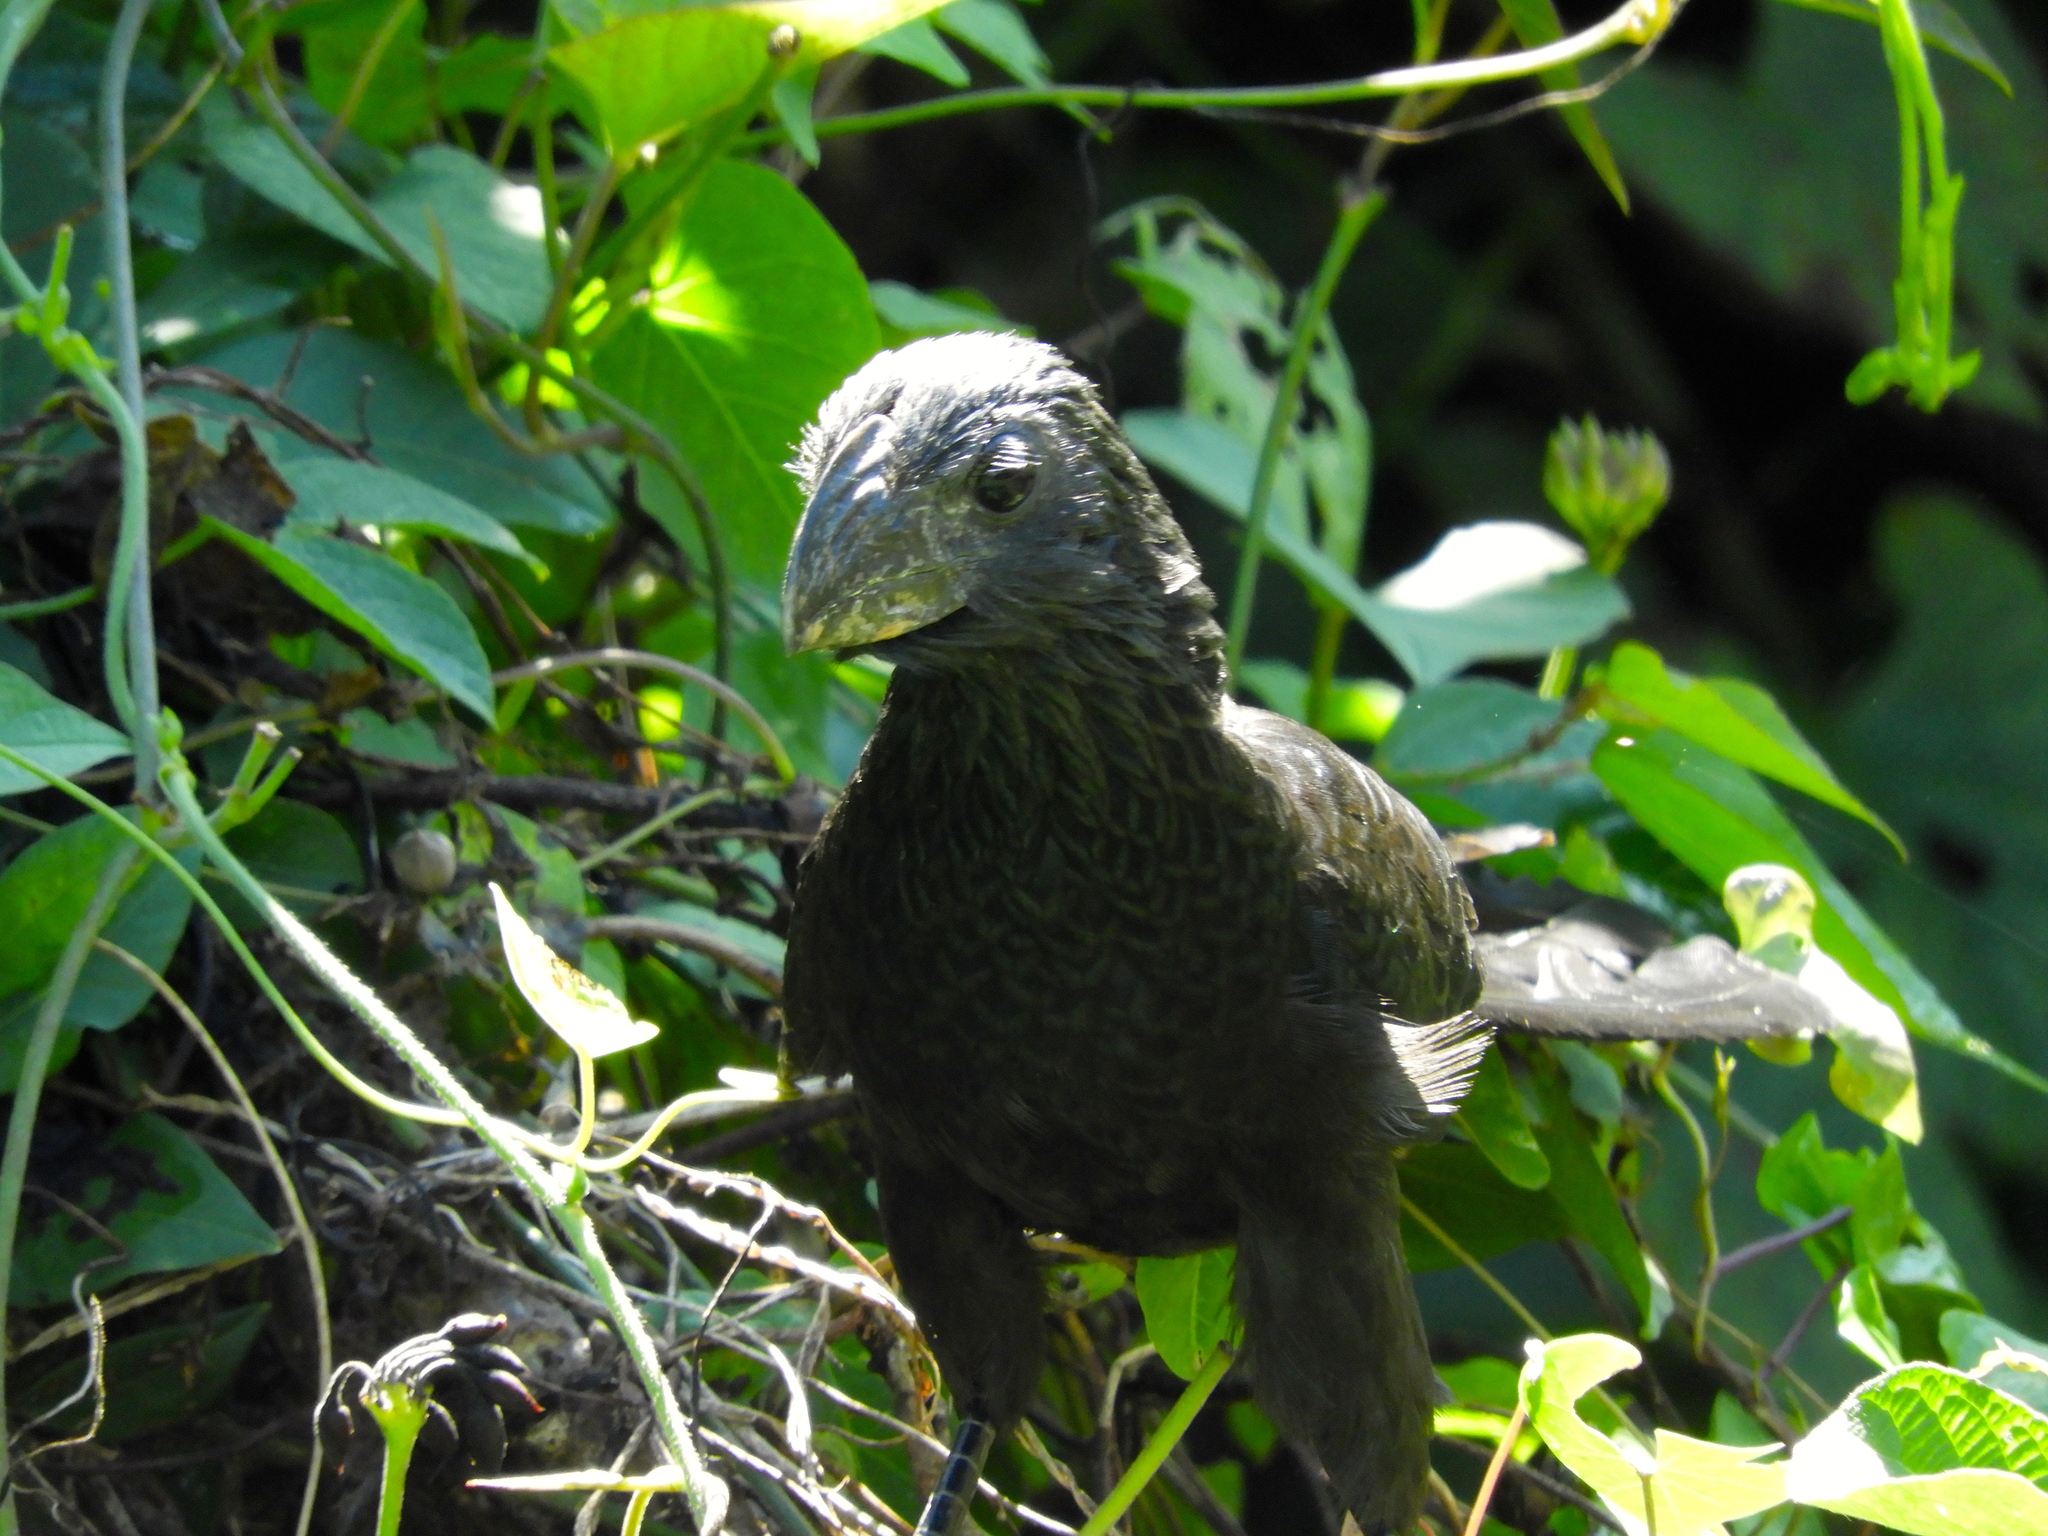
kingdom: Animalia
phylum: Chordata
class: Aves
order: Cuculiformes
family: Cuculidae
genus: Crotophaga
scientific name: Crotophaga sulcirostris
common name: Groove-billed ani
